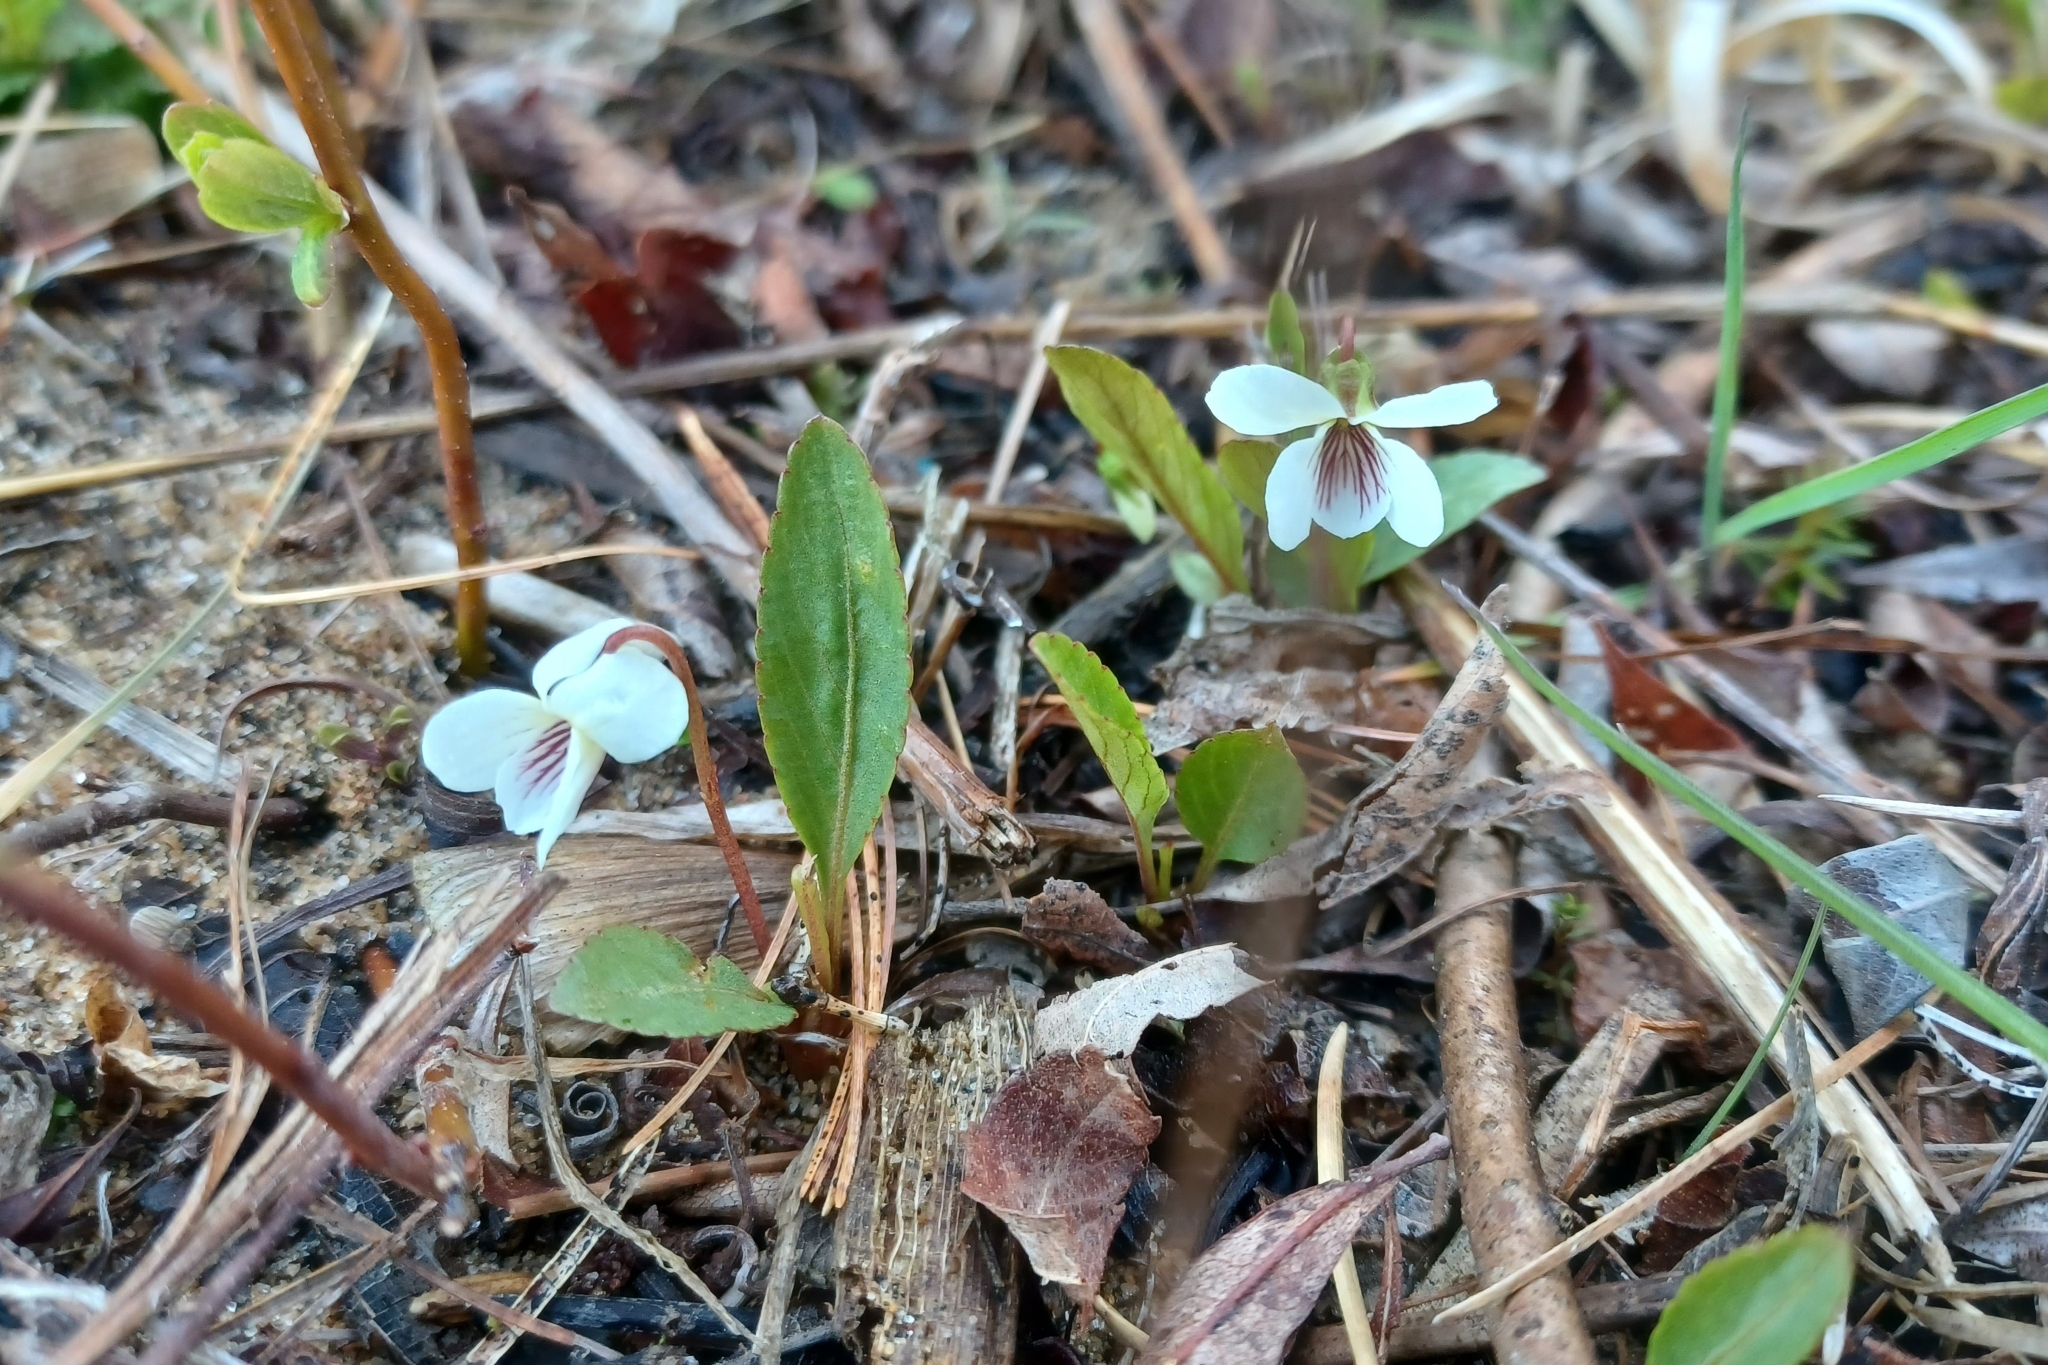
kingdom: Plantae
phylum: Tracheophyta
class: Magnoliopsida
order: Malpighiales
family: Violaceae
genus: Viola
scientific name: Viola lanceolata
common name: Bog white violet
